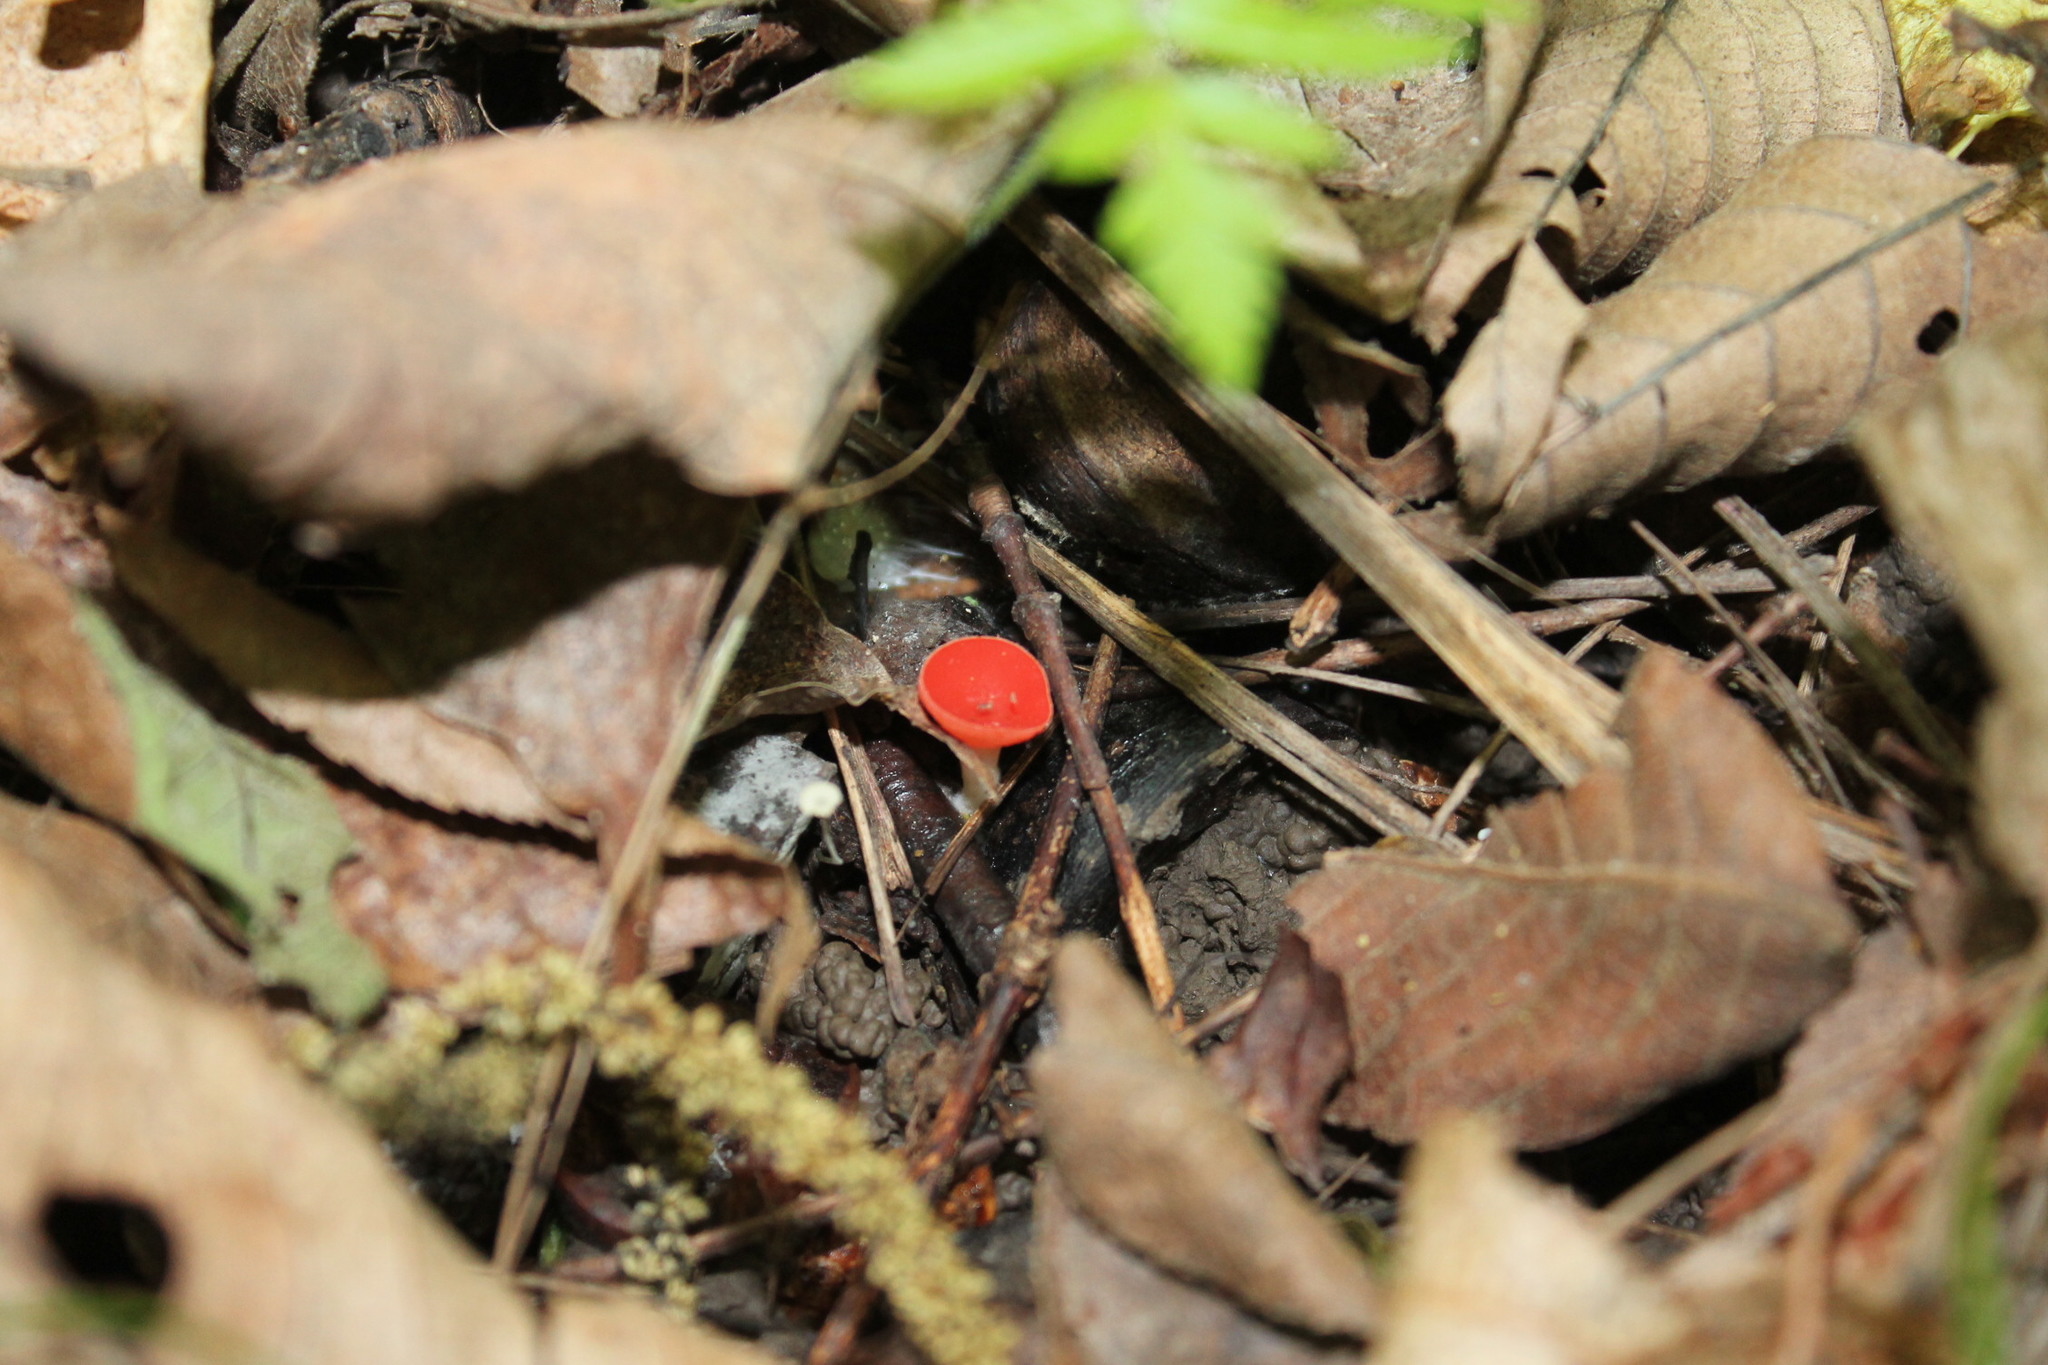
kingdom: Fungi
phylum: Ascomycota
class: Pezizomycetes
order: Pezizales
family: Sarcoscyphaceae
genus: Sarcoscypha
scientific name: Sarcoscypha occidentalis
